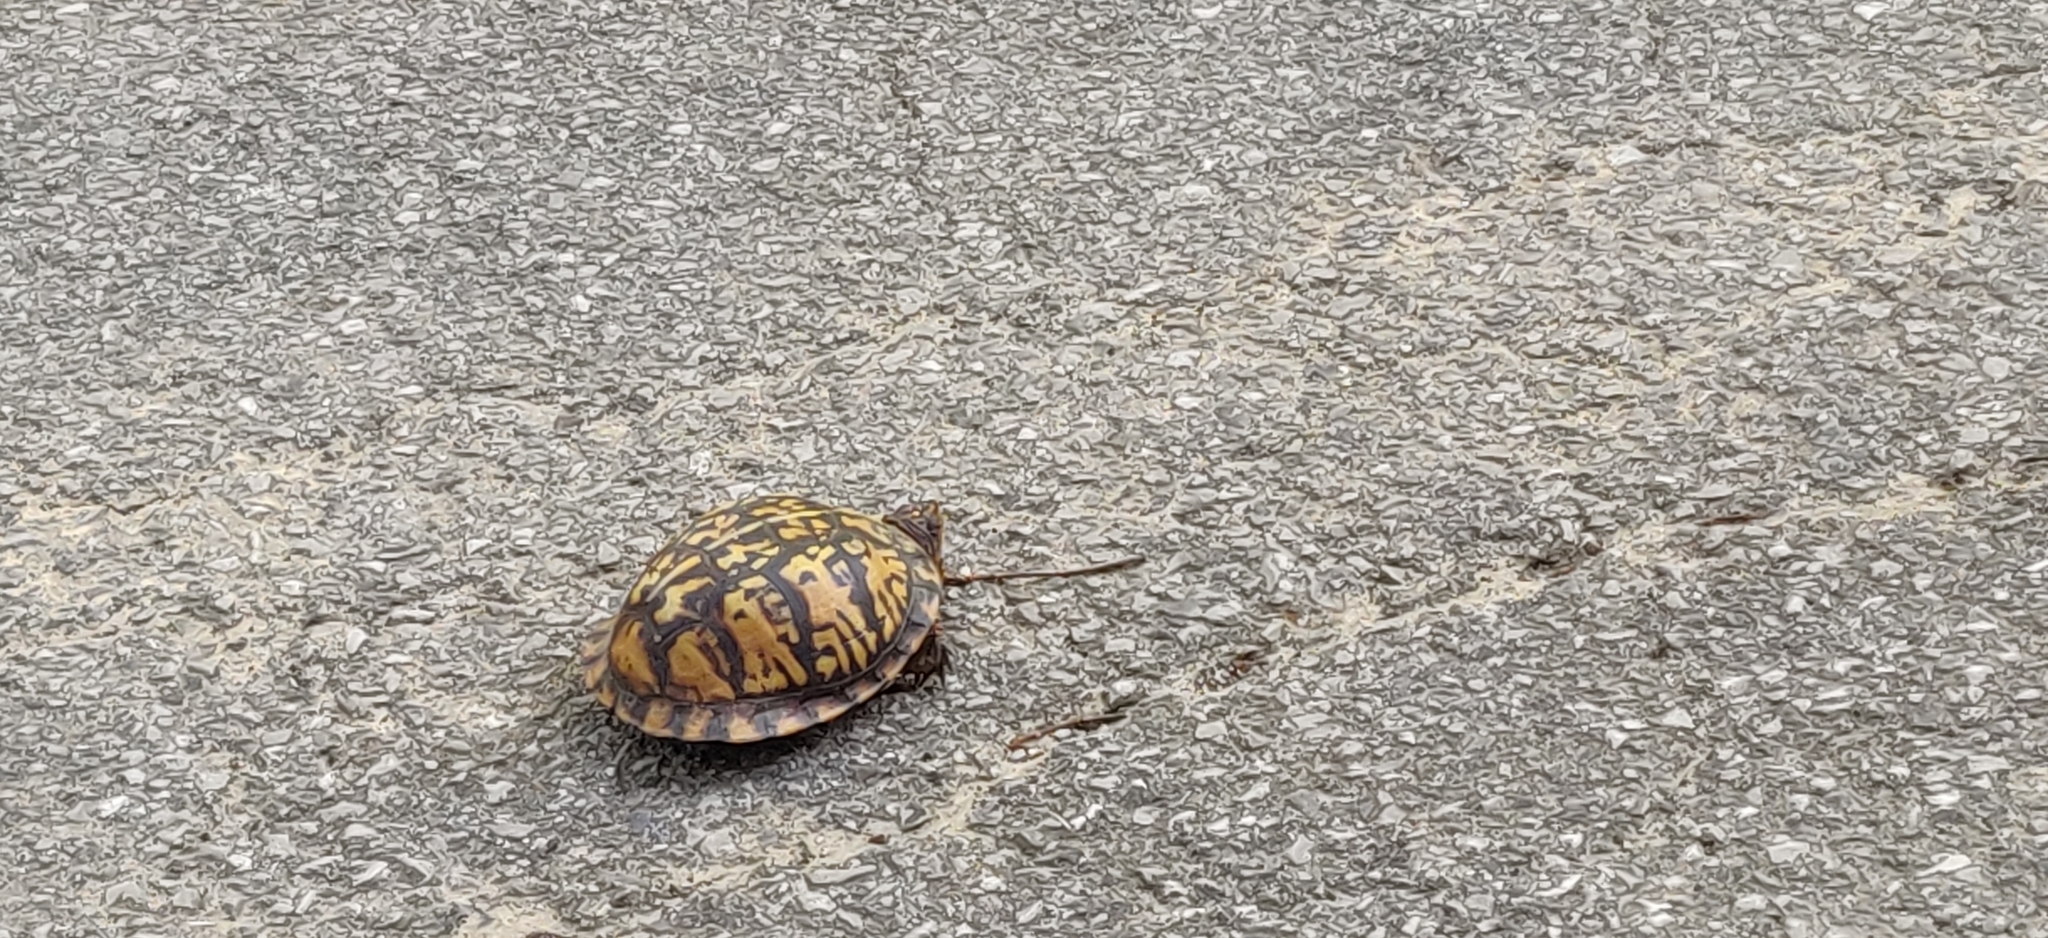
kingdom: Animalia
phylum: Chordata
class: Testudines
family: Emydidae
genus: Terrapene
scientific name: Terrapene carolina
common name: Common box turtle
